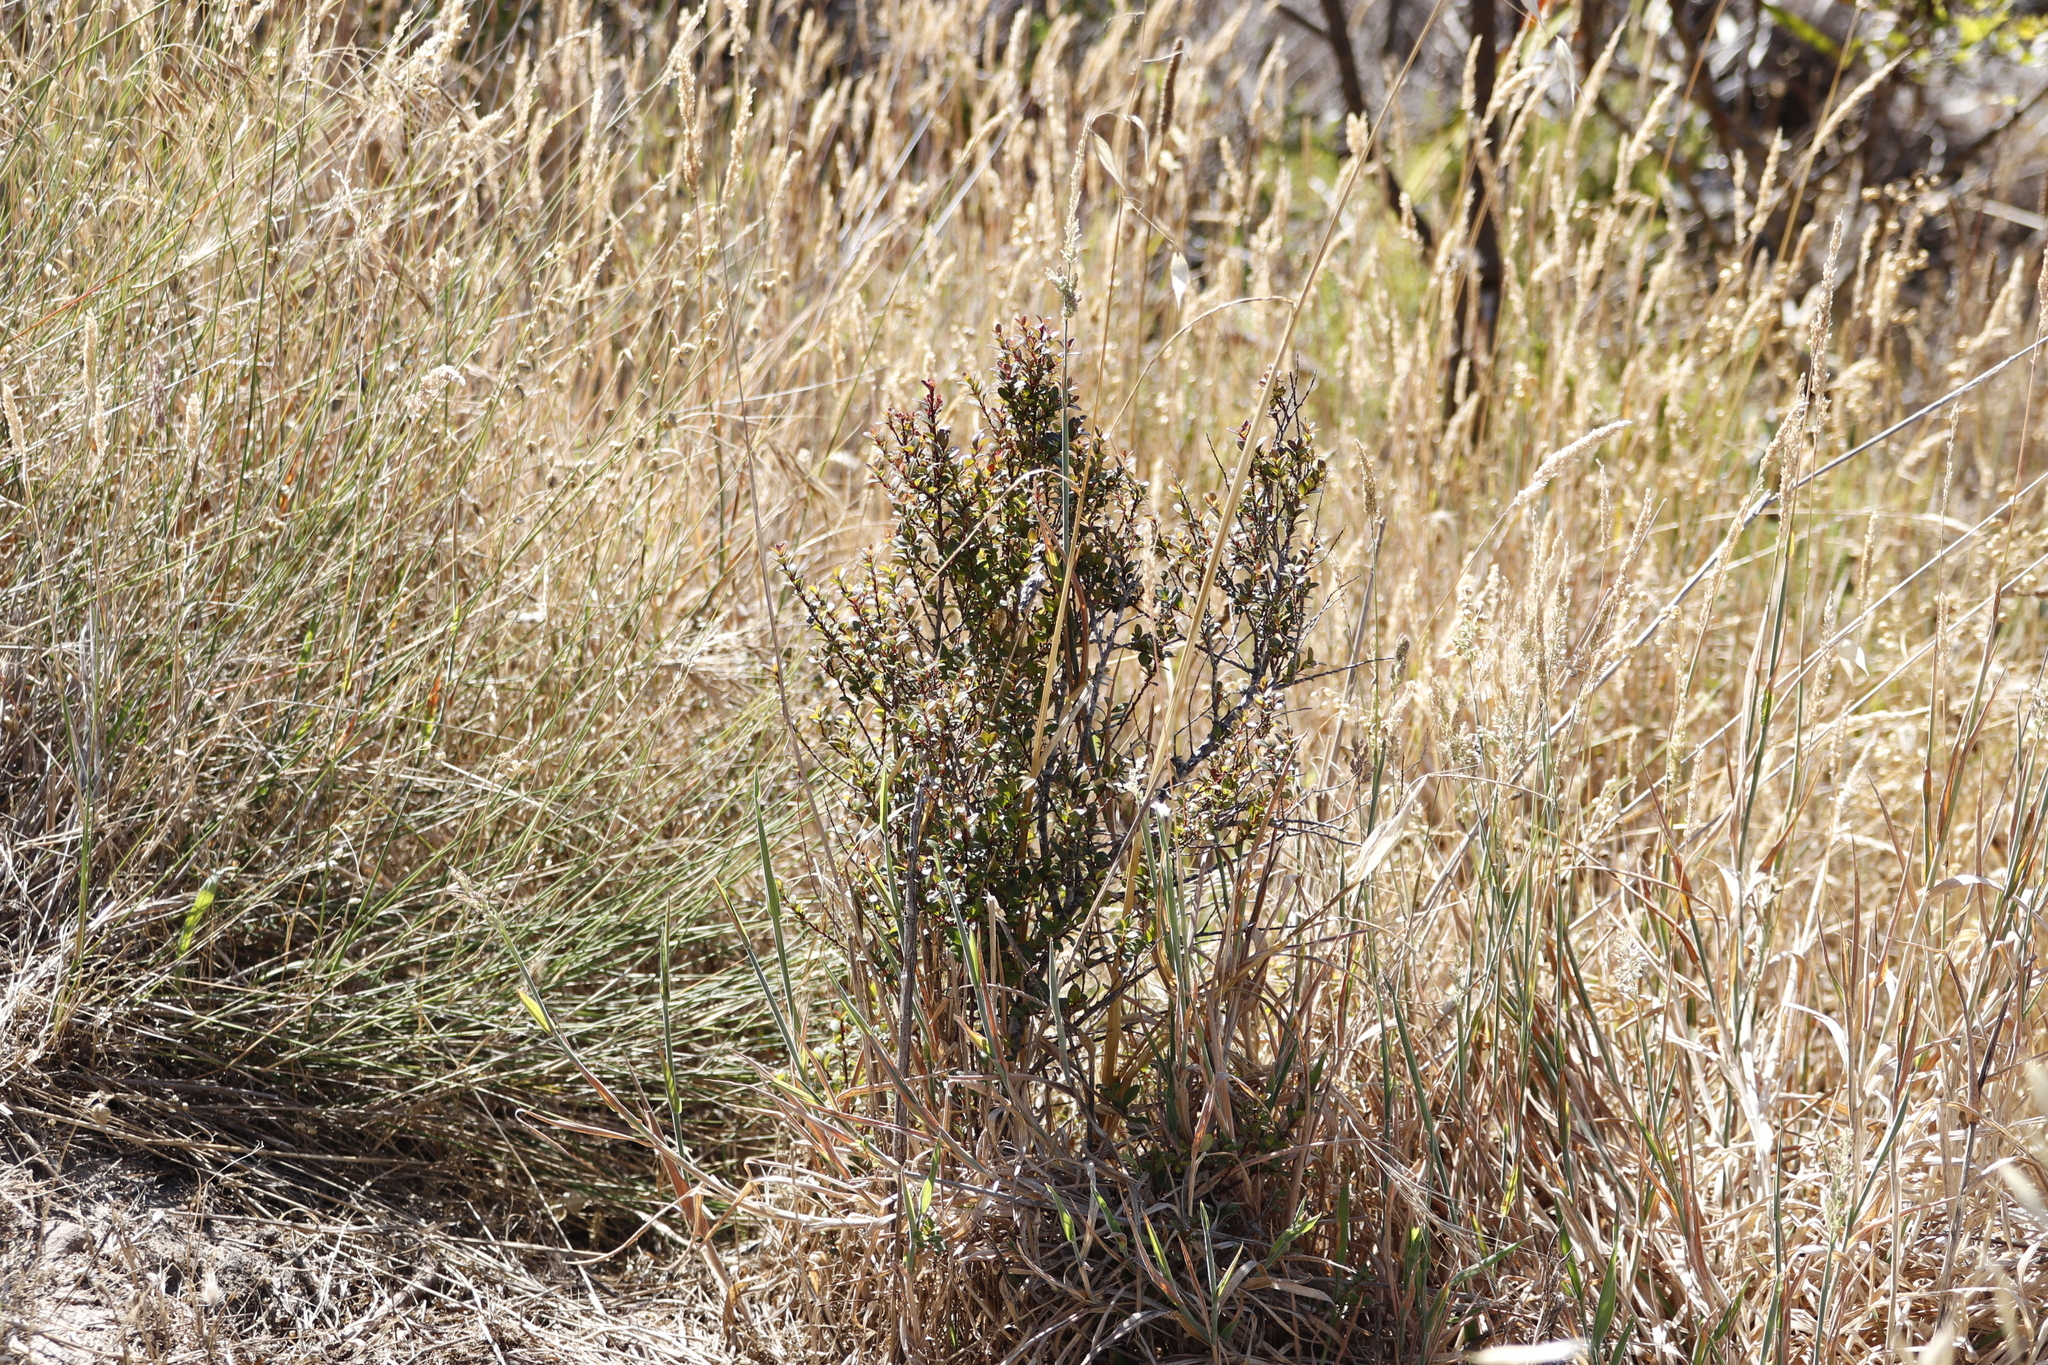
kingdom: Plantae
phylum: Tracheophyta
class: Magnoliopsida
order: Ericales
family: Primulaceae
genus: Myrsine
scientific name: Myrsine africana
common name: African-boxwood
